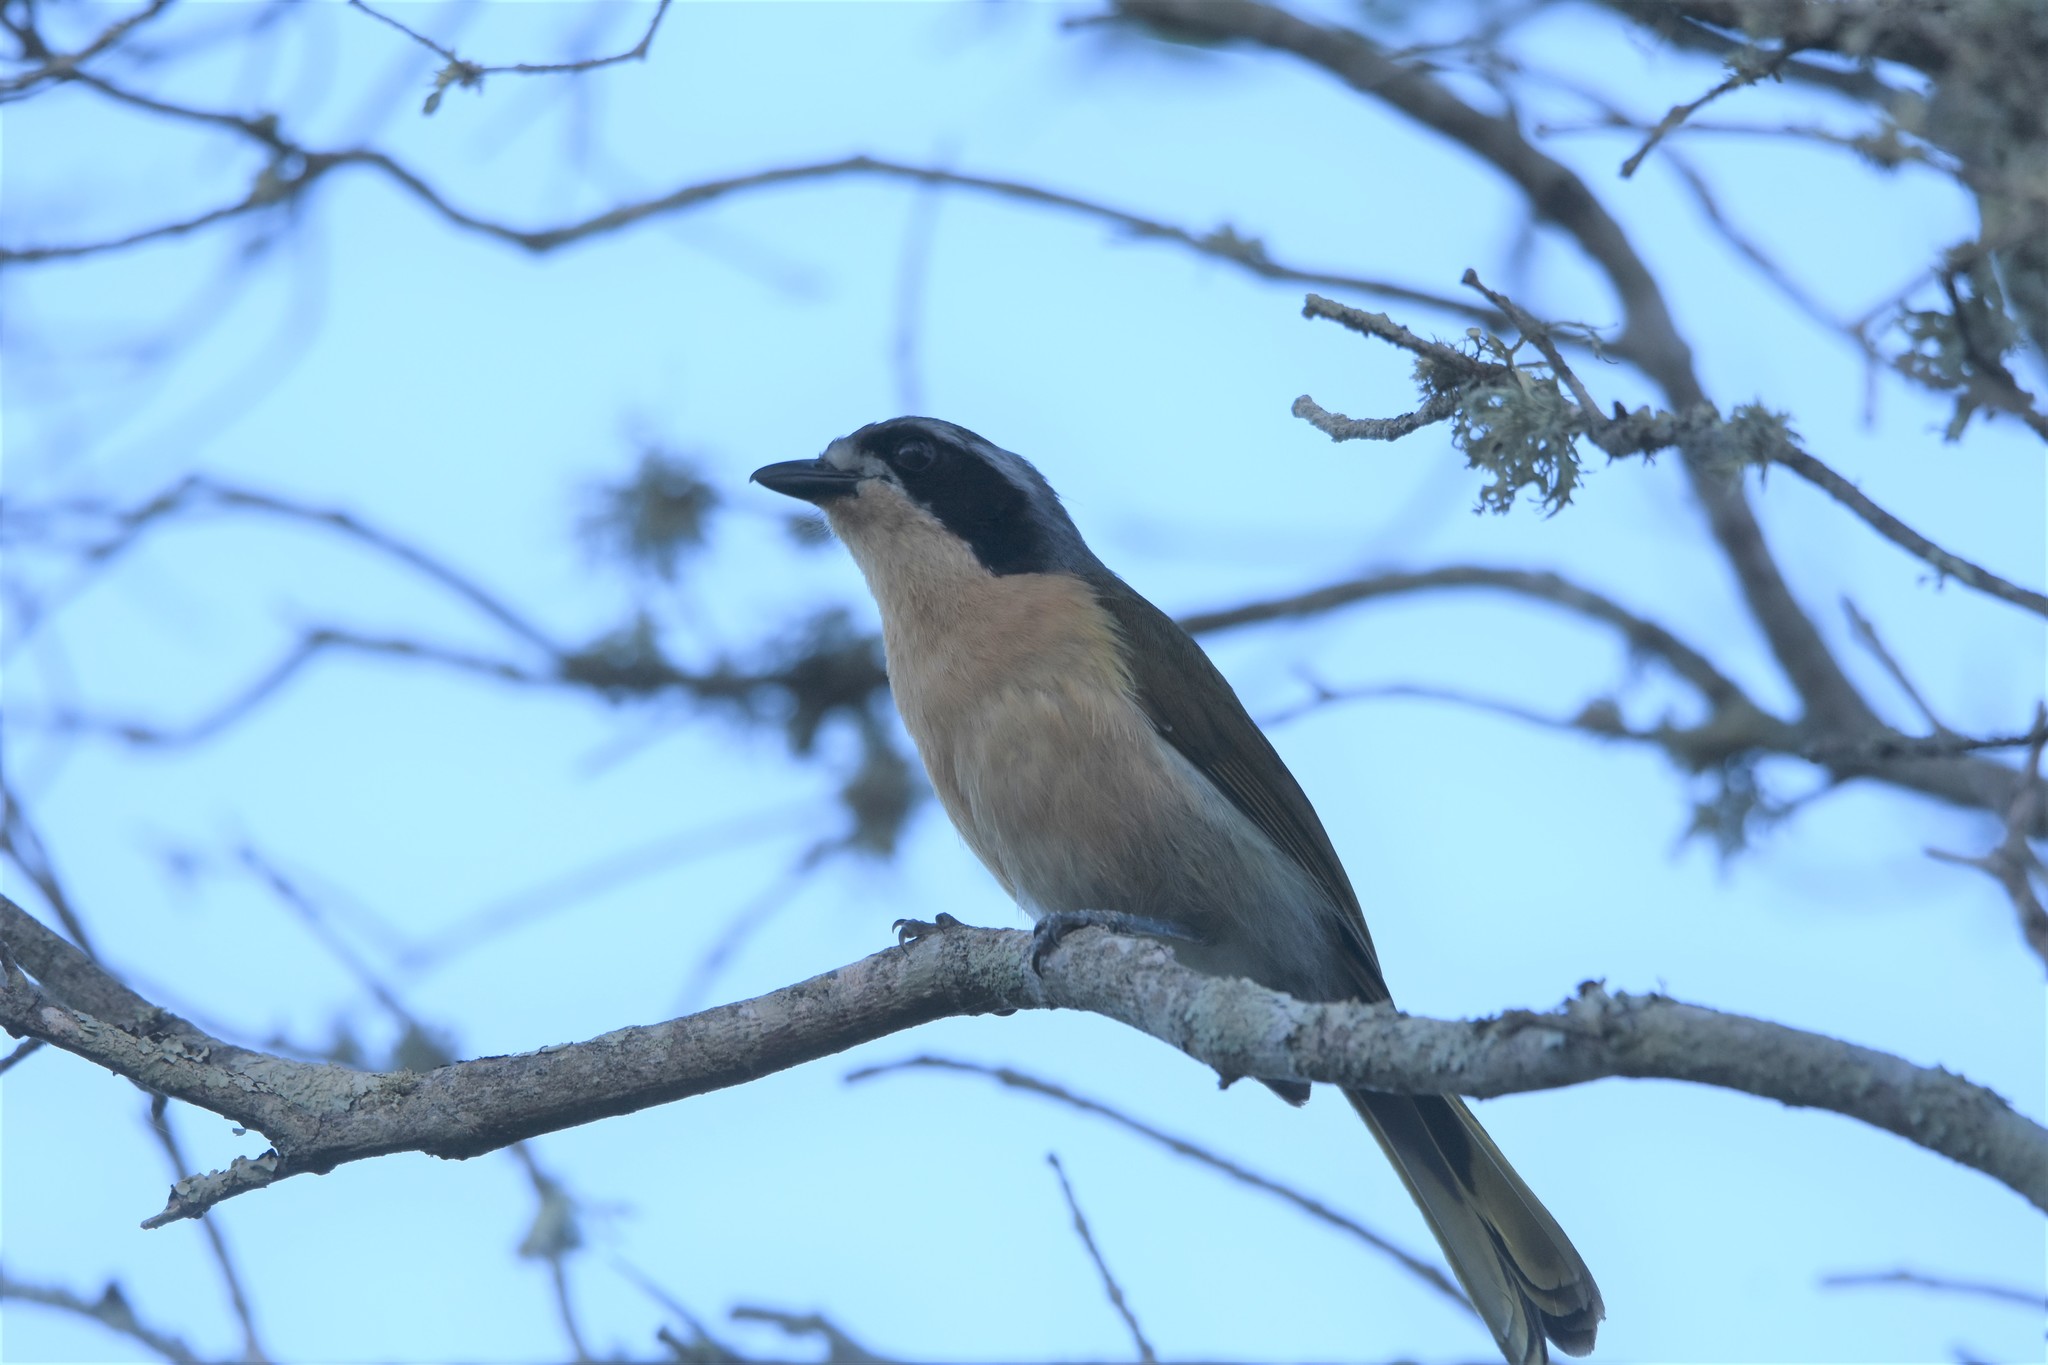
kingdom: Animalia
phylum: Chordata
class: Aves
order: Passeriformes
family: Malaconotidae
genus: Chlorophoneus
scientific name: Chlorophoneus olivaceus
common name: Olive bushshrike
